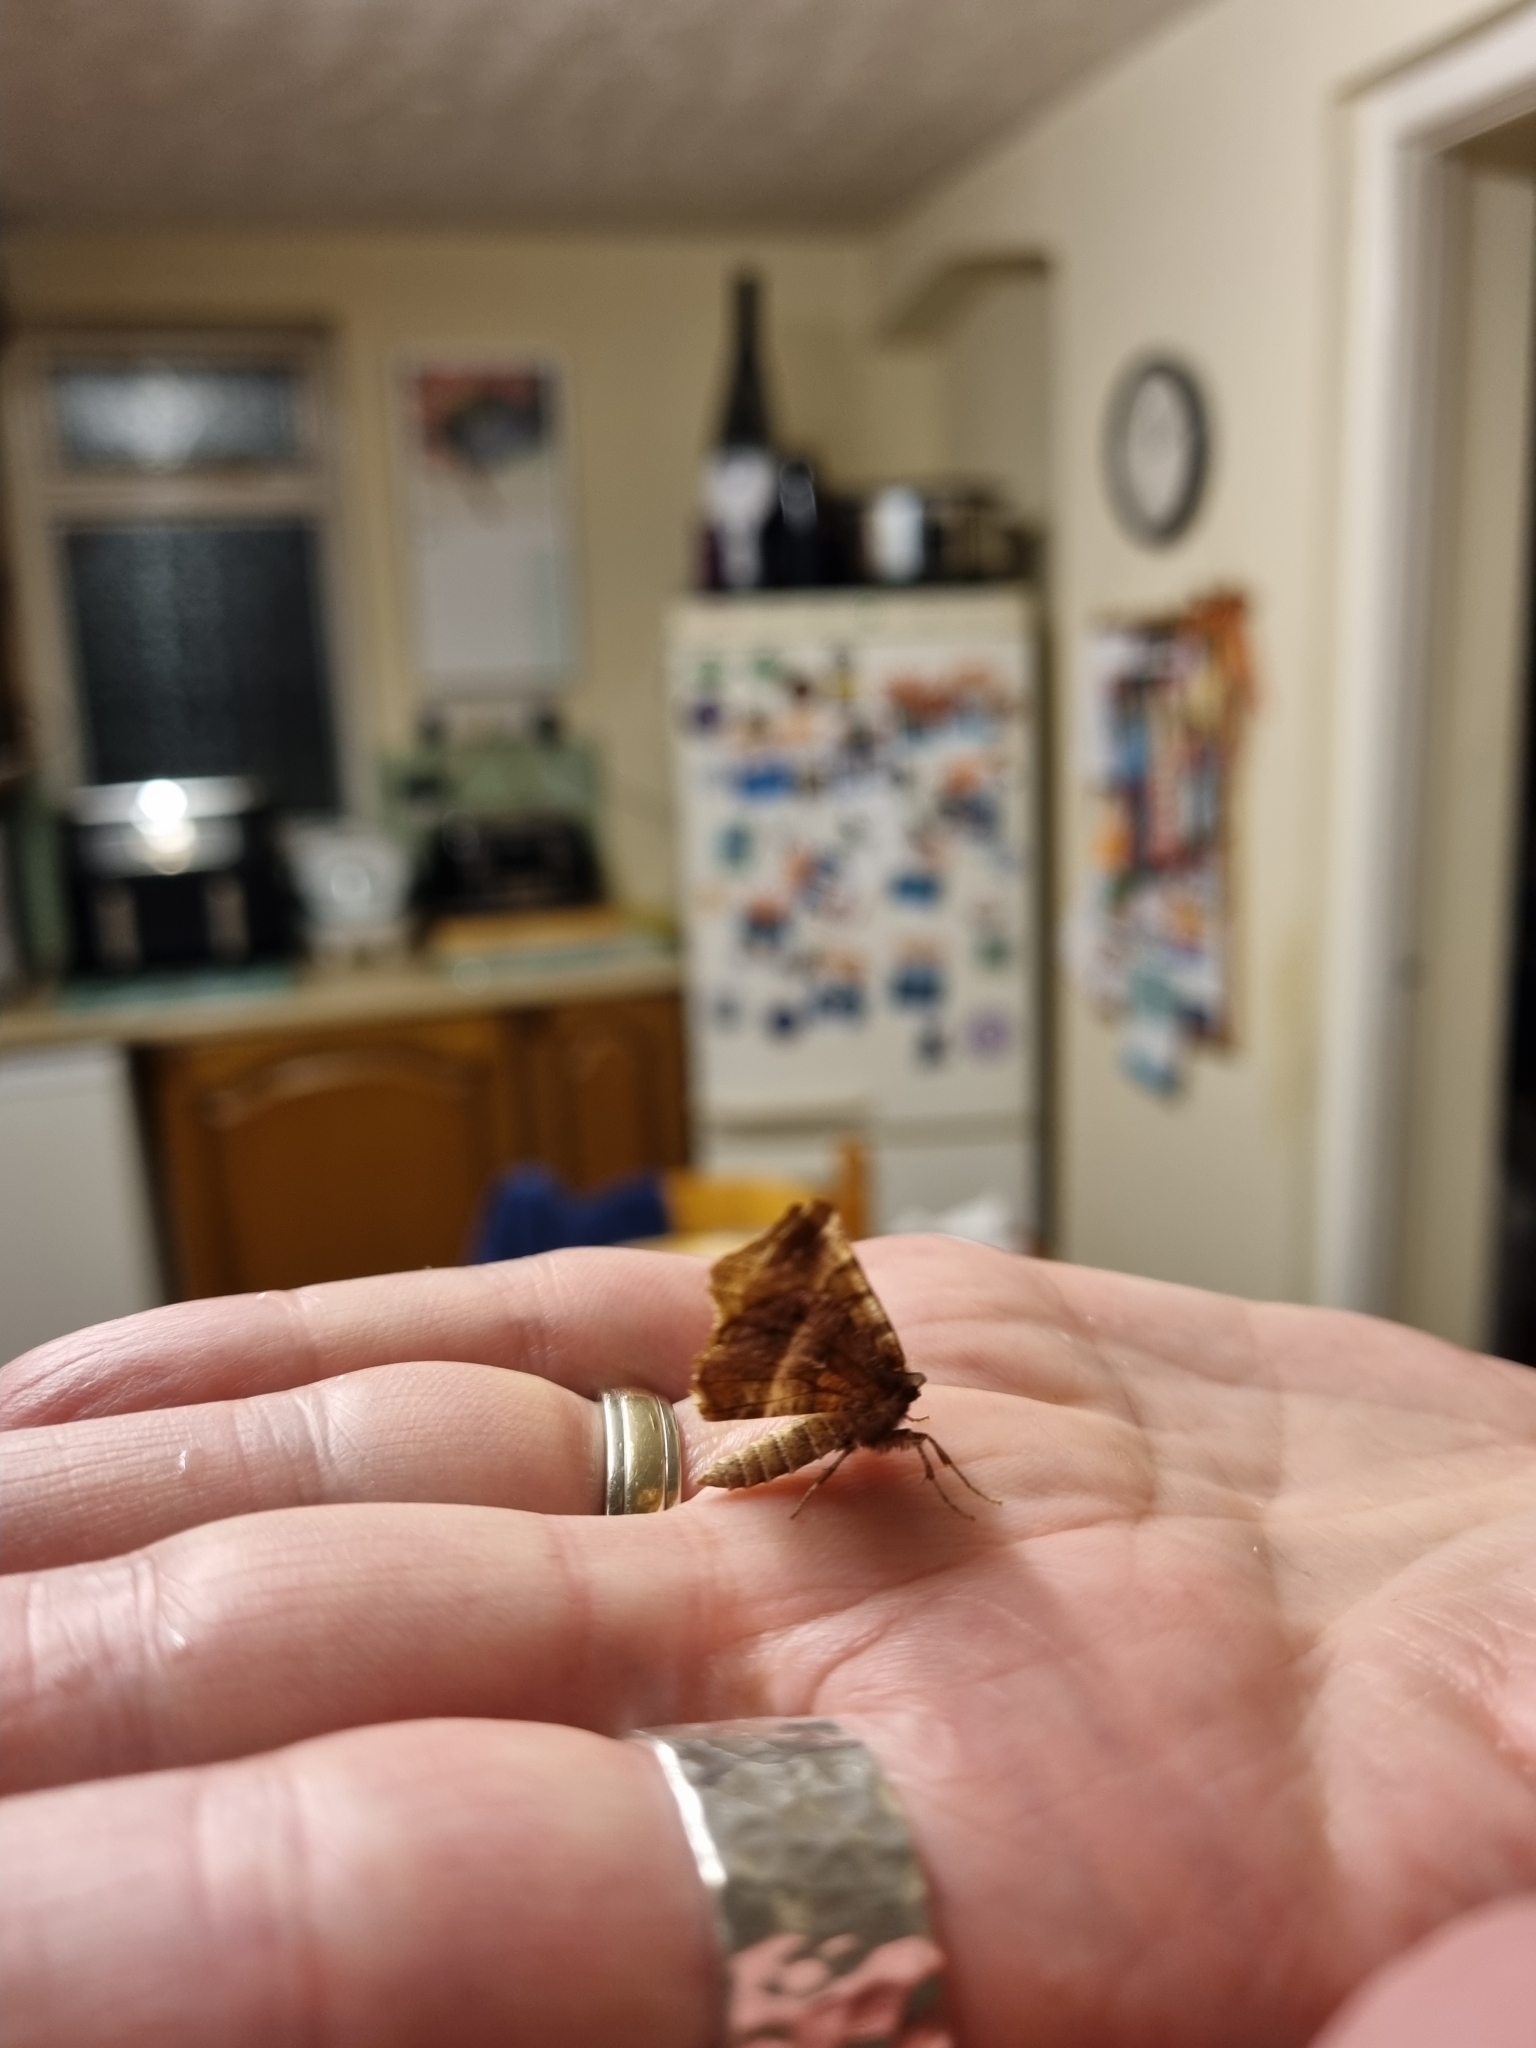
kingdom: Animalia
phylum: Arthropoda
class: Insecta
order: Lepidoptera
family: Geometridae
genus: Selenia
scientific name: Selenia dentaria
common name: Early thorn
